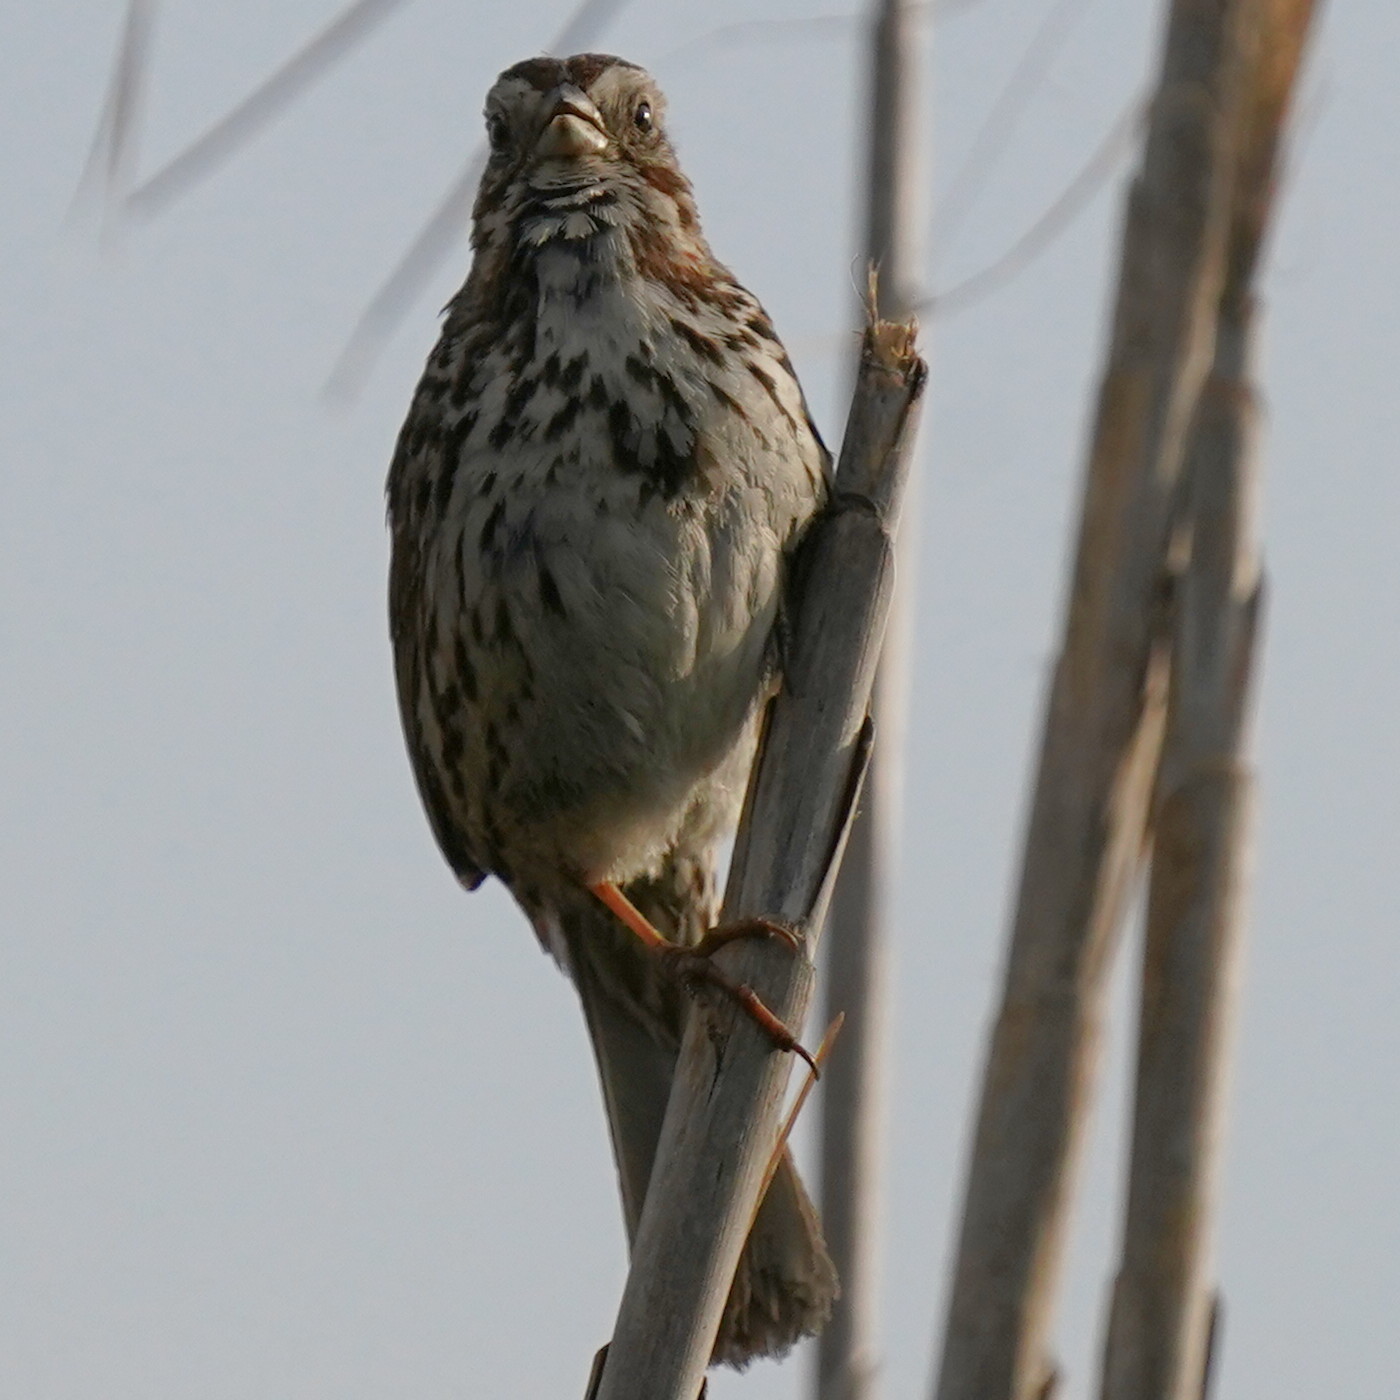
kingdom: Animalia
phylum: Chordata
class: Aves
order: Passeriformes
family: Passerellidae
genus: Melospiza
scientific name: Melospiza melodia
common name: Song sparrow
